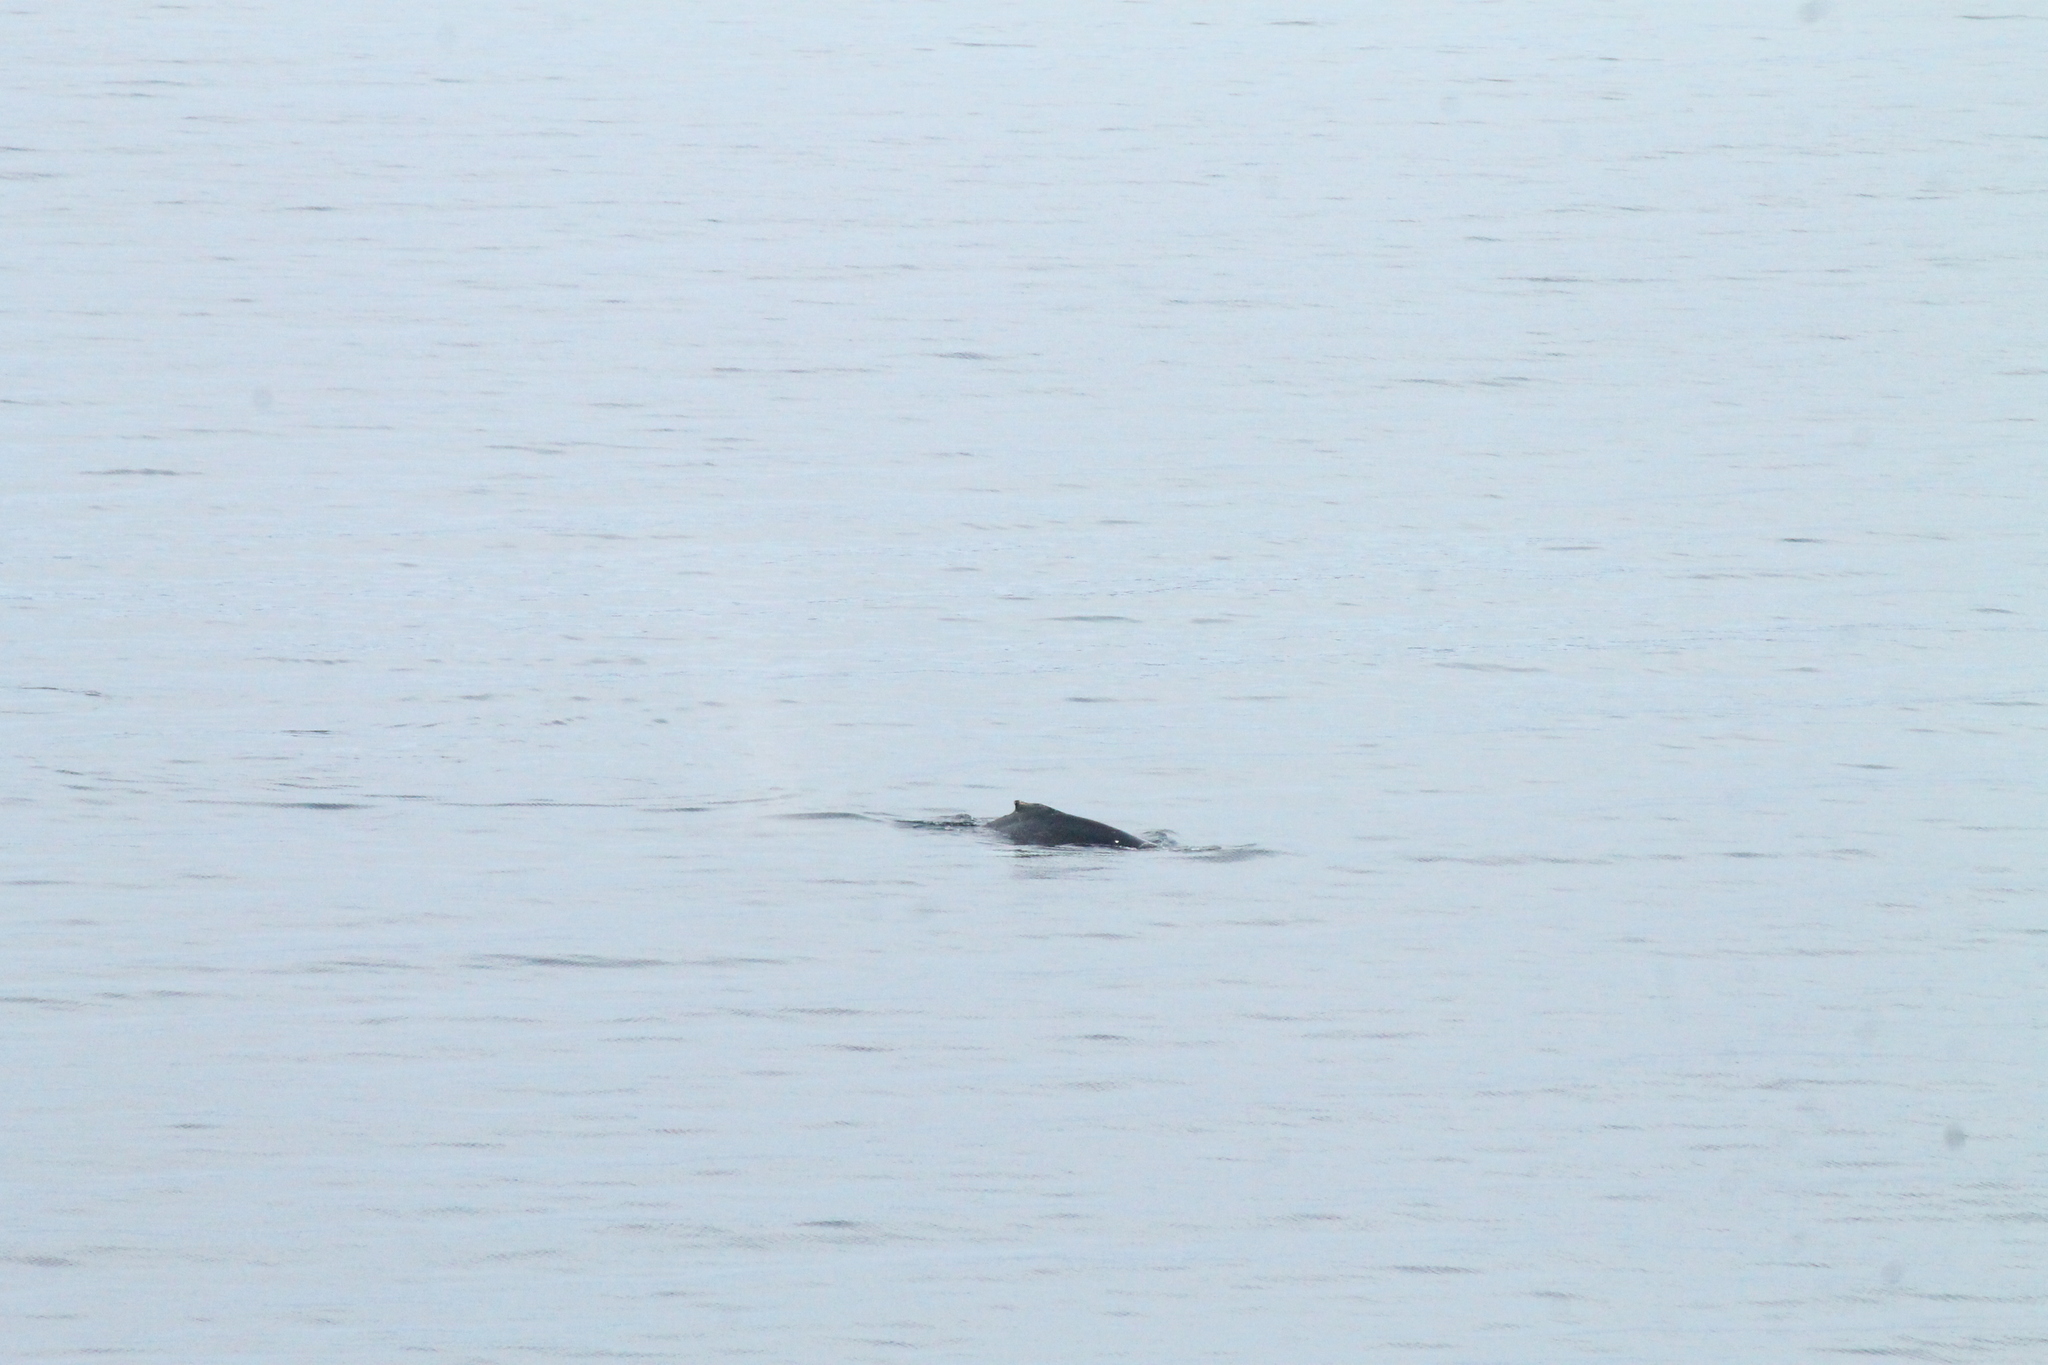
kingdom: Animalia
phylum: Chordata
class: Mammalia
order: Cetacea
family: Balaenopteridae
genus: Megaptera
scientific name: Megaptera novaeangliae
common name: Humpback whale
